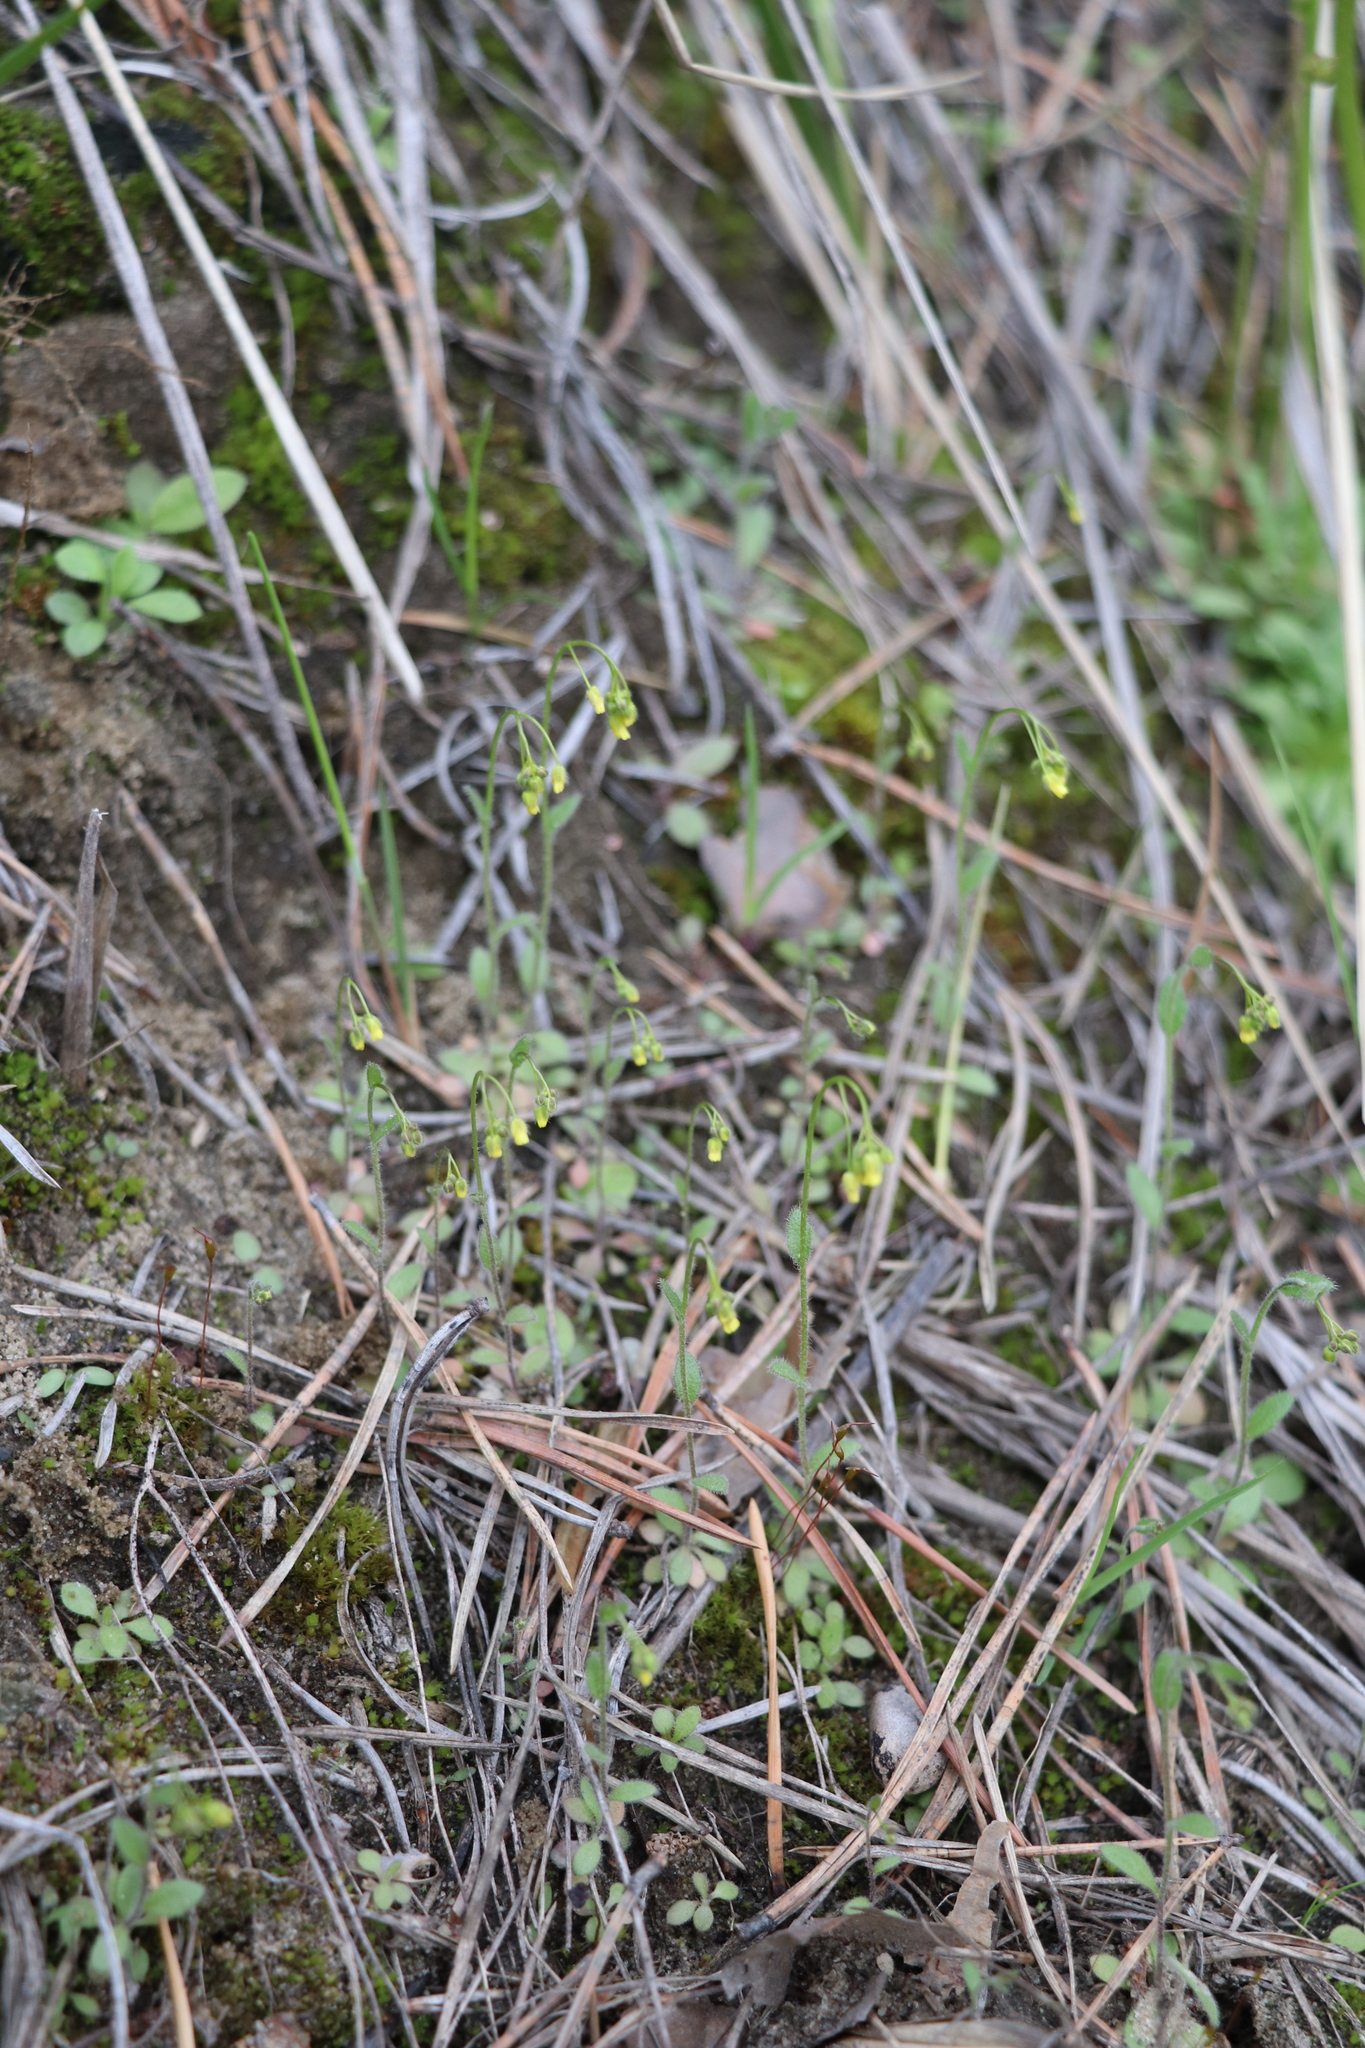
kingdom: Plantae
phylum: Tracheophyta
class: Magnoliopsida
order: Brassicales
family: Brassicaceae
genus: Draba
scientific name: Draba nemorosa
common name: Wood whitlow-grass
